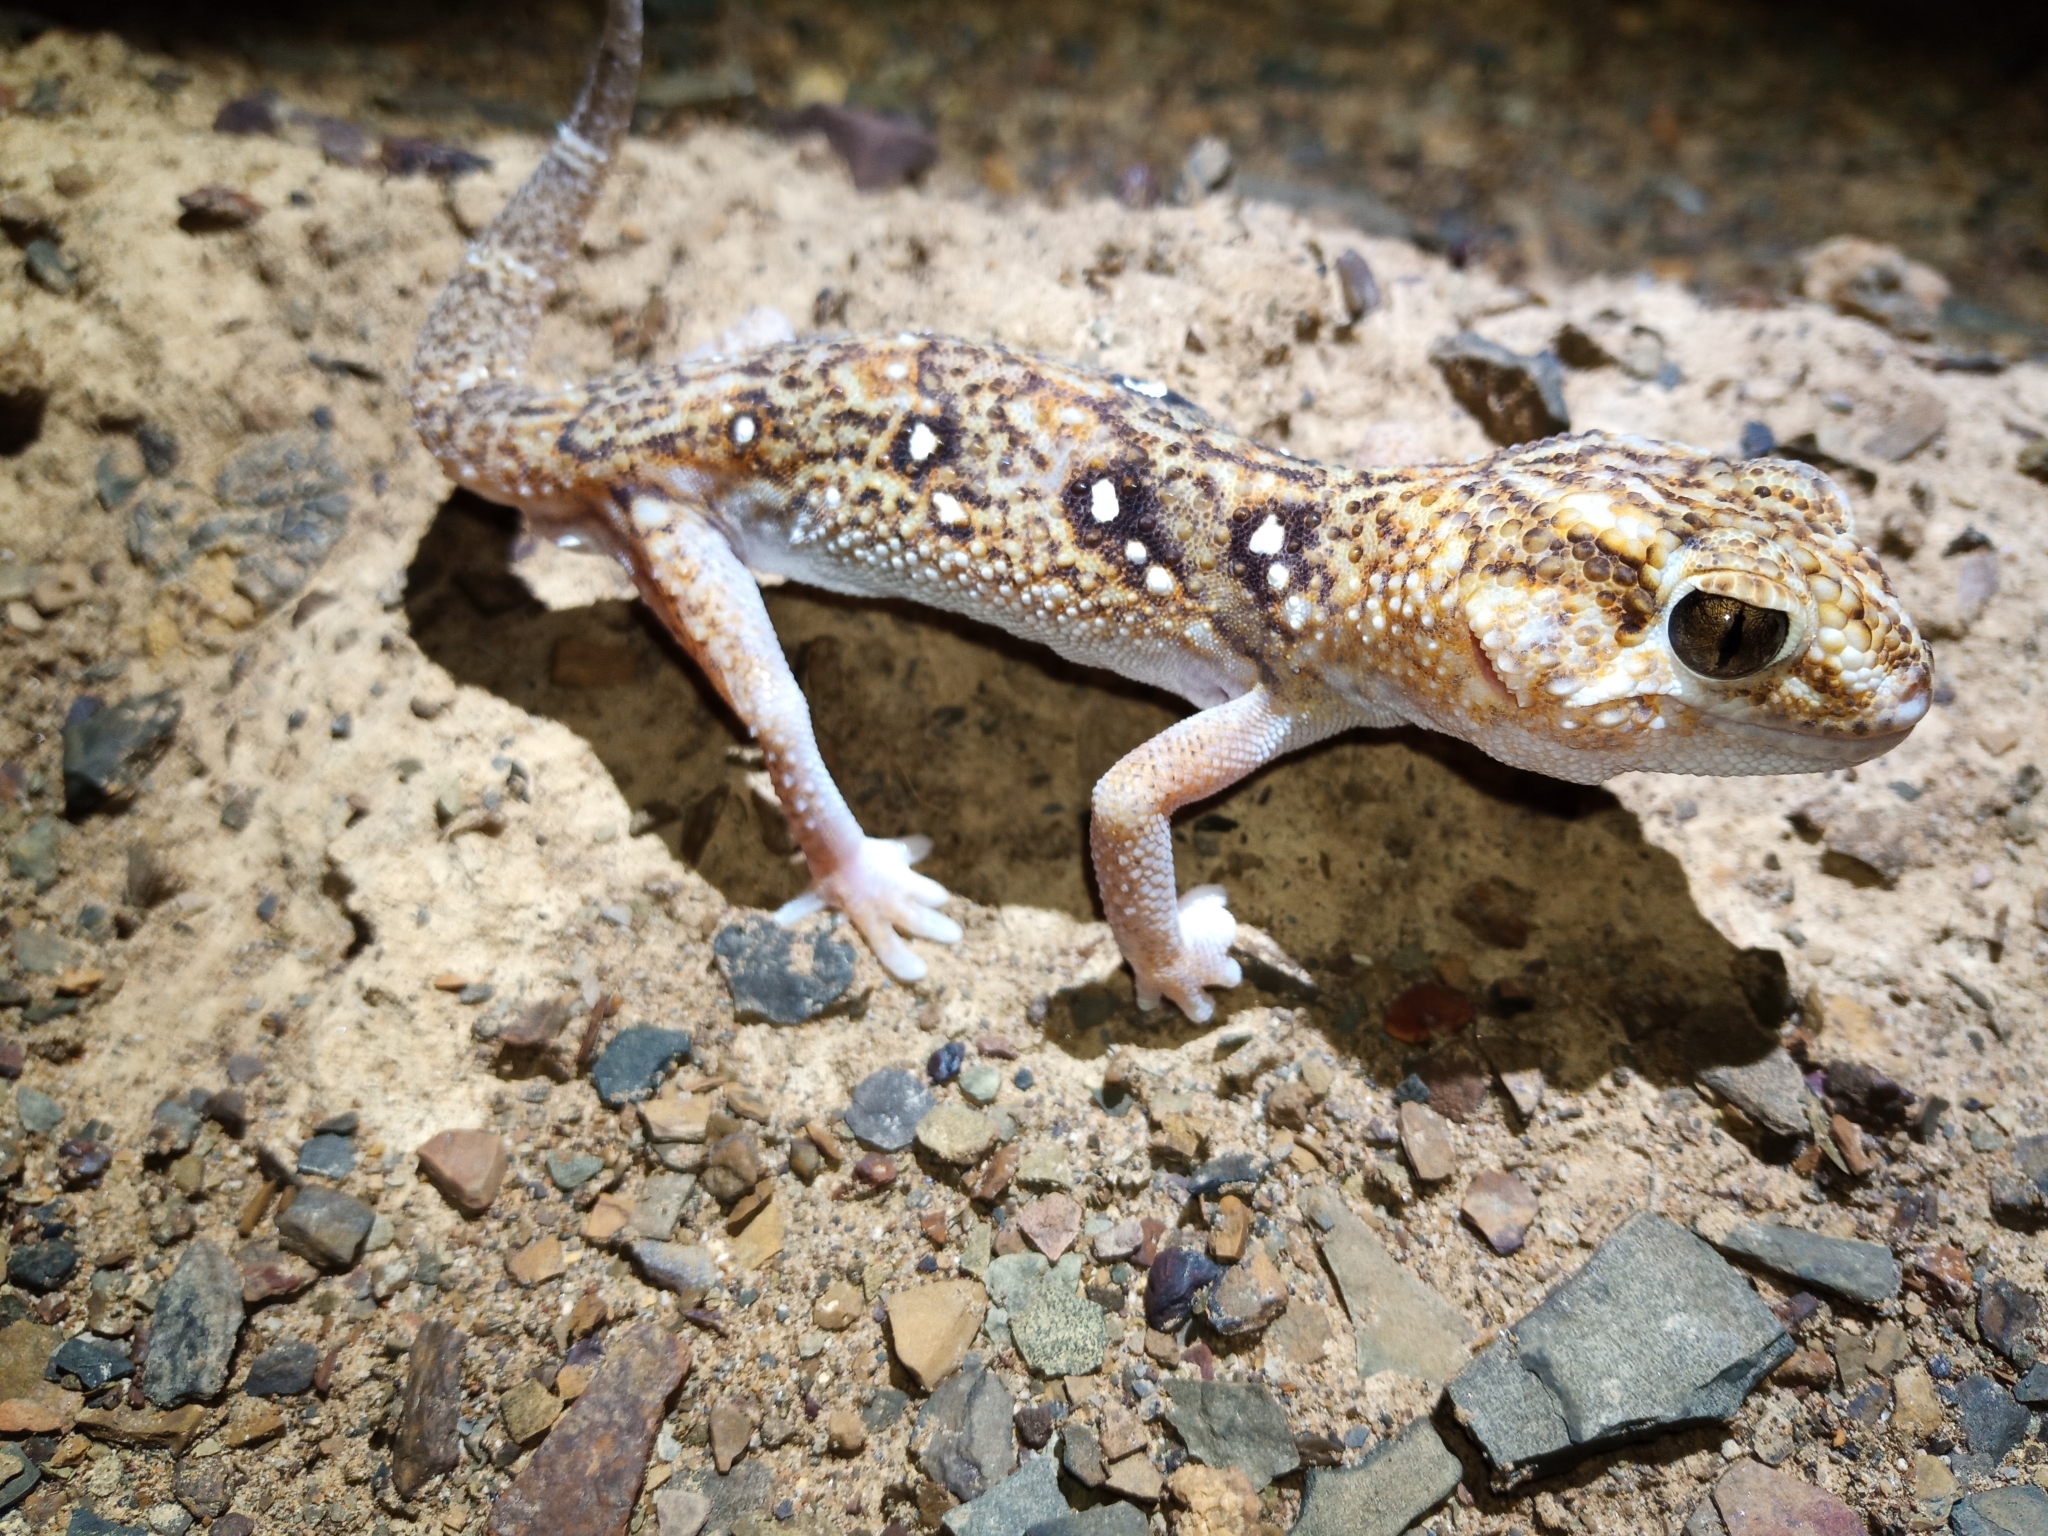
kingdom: Animalia
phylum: Chordata
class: Squamata
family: Gekkonidae
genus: Chondrodactylus
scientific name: Chondrodactylus angulifer
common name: Common giant ground gecko
